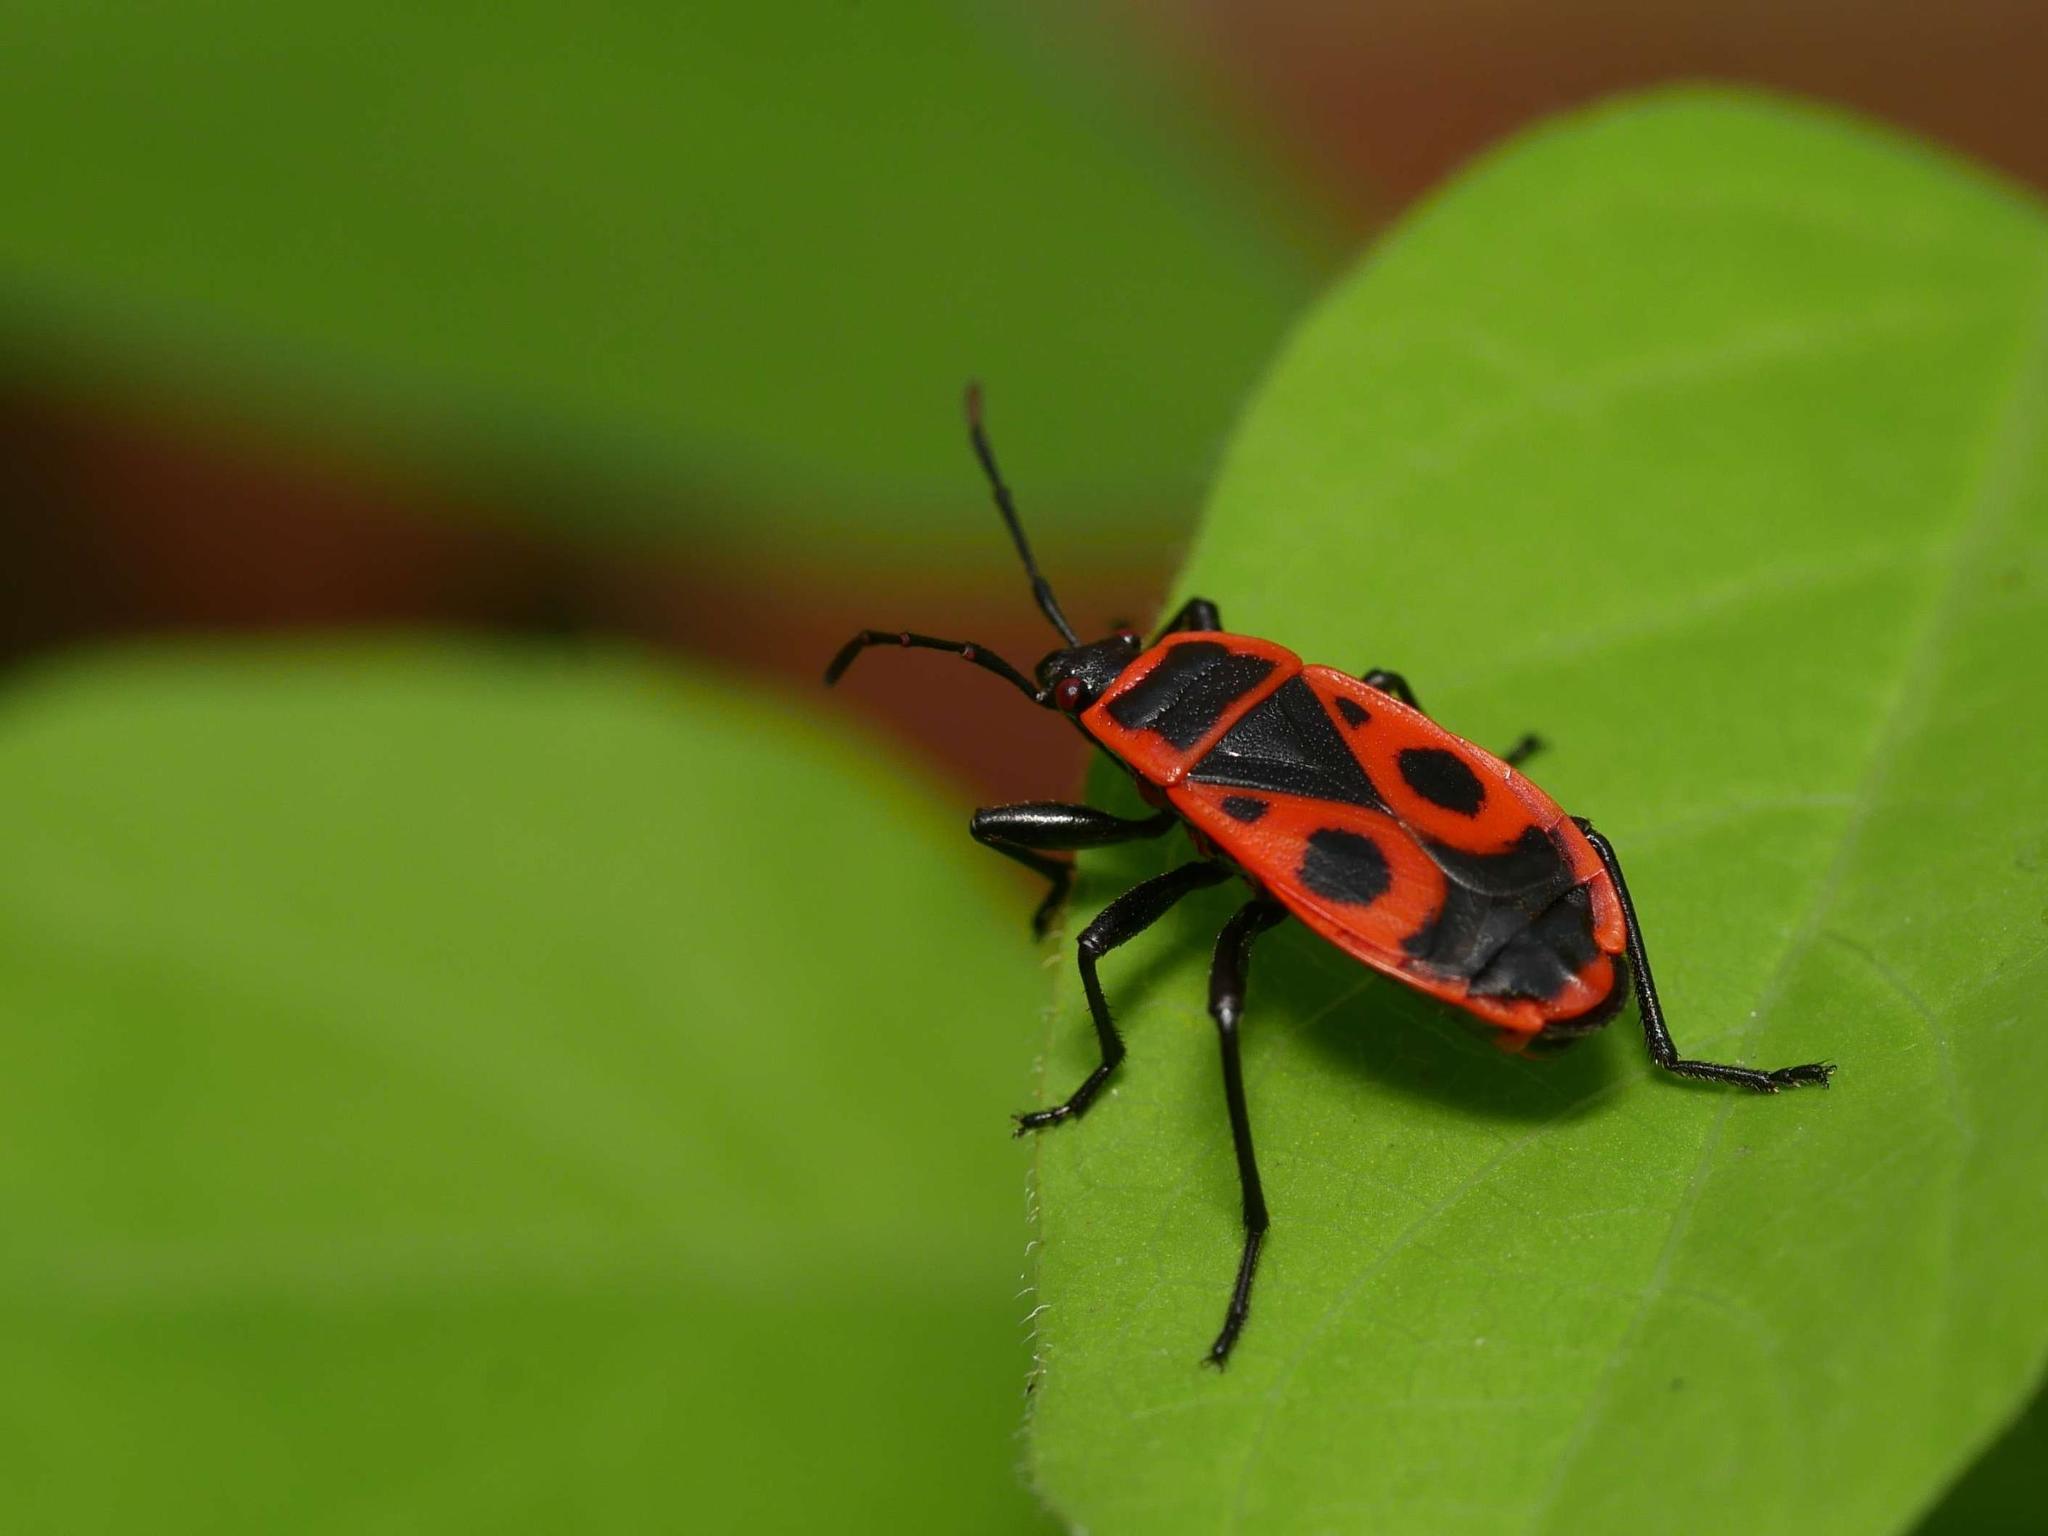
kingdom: Animalia
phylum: Arthropoda
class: Insecta
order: Hemiptera
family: Pyrrhocoridae
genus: Pyrrhocoris
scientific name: Pyrrhocoris apterus
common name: Firebug
